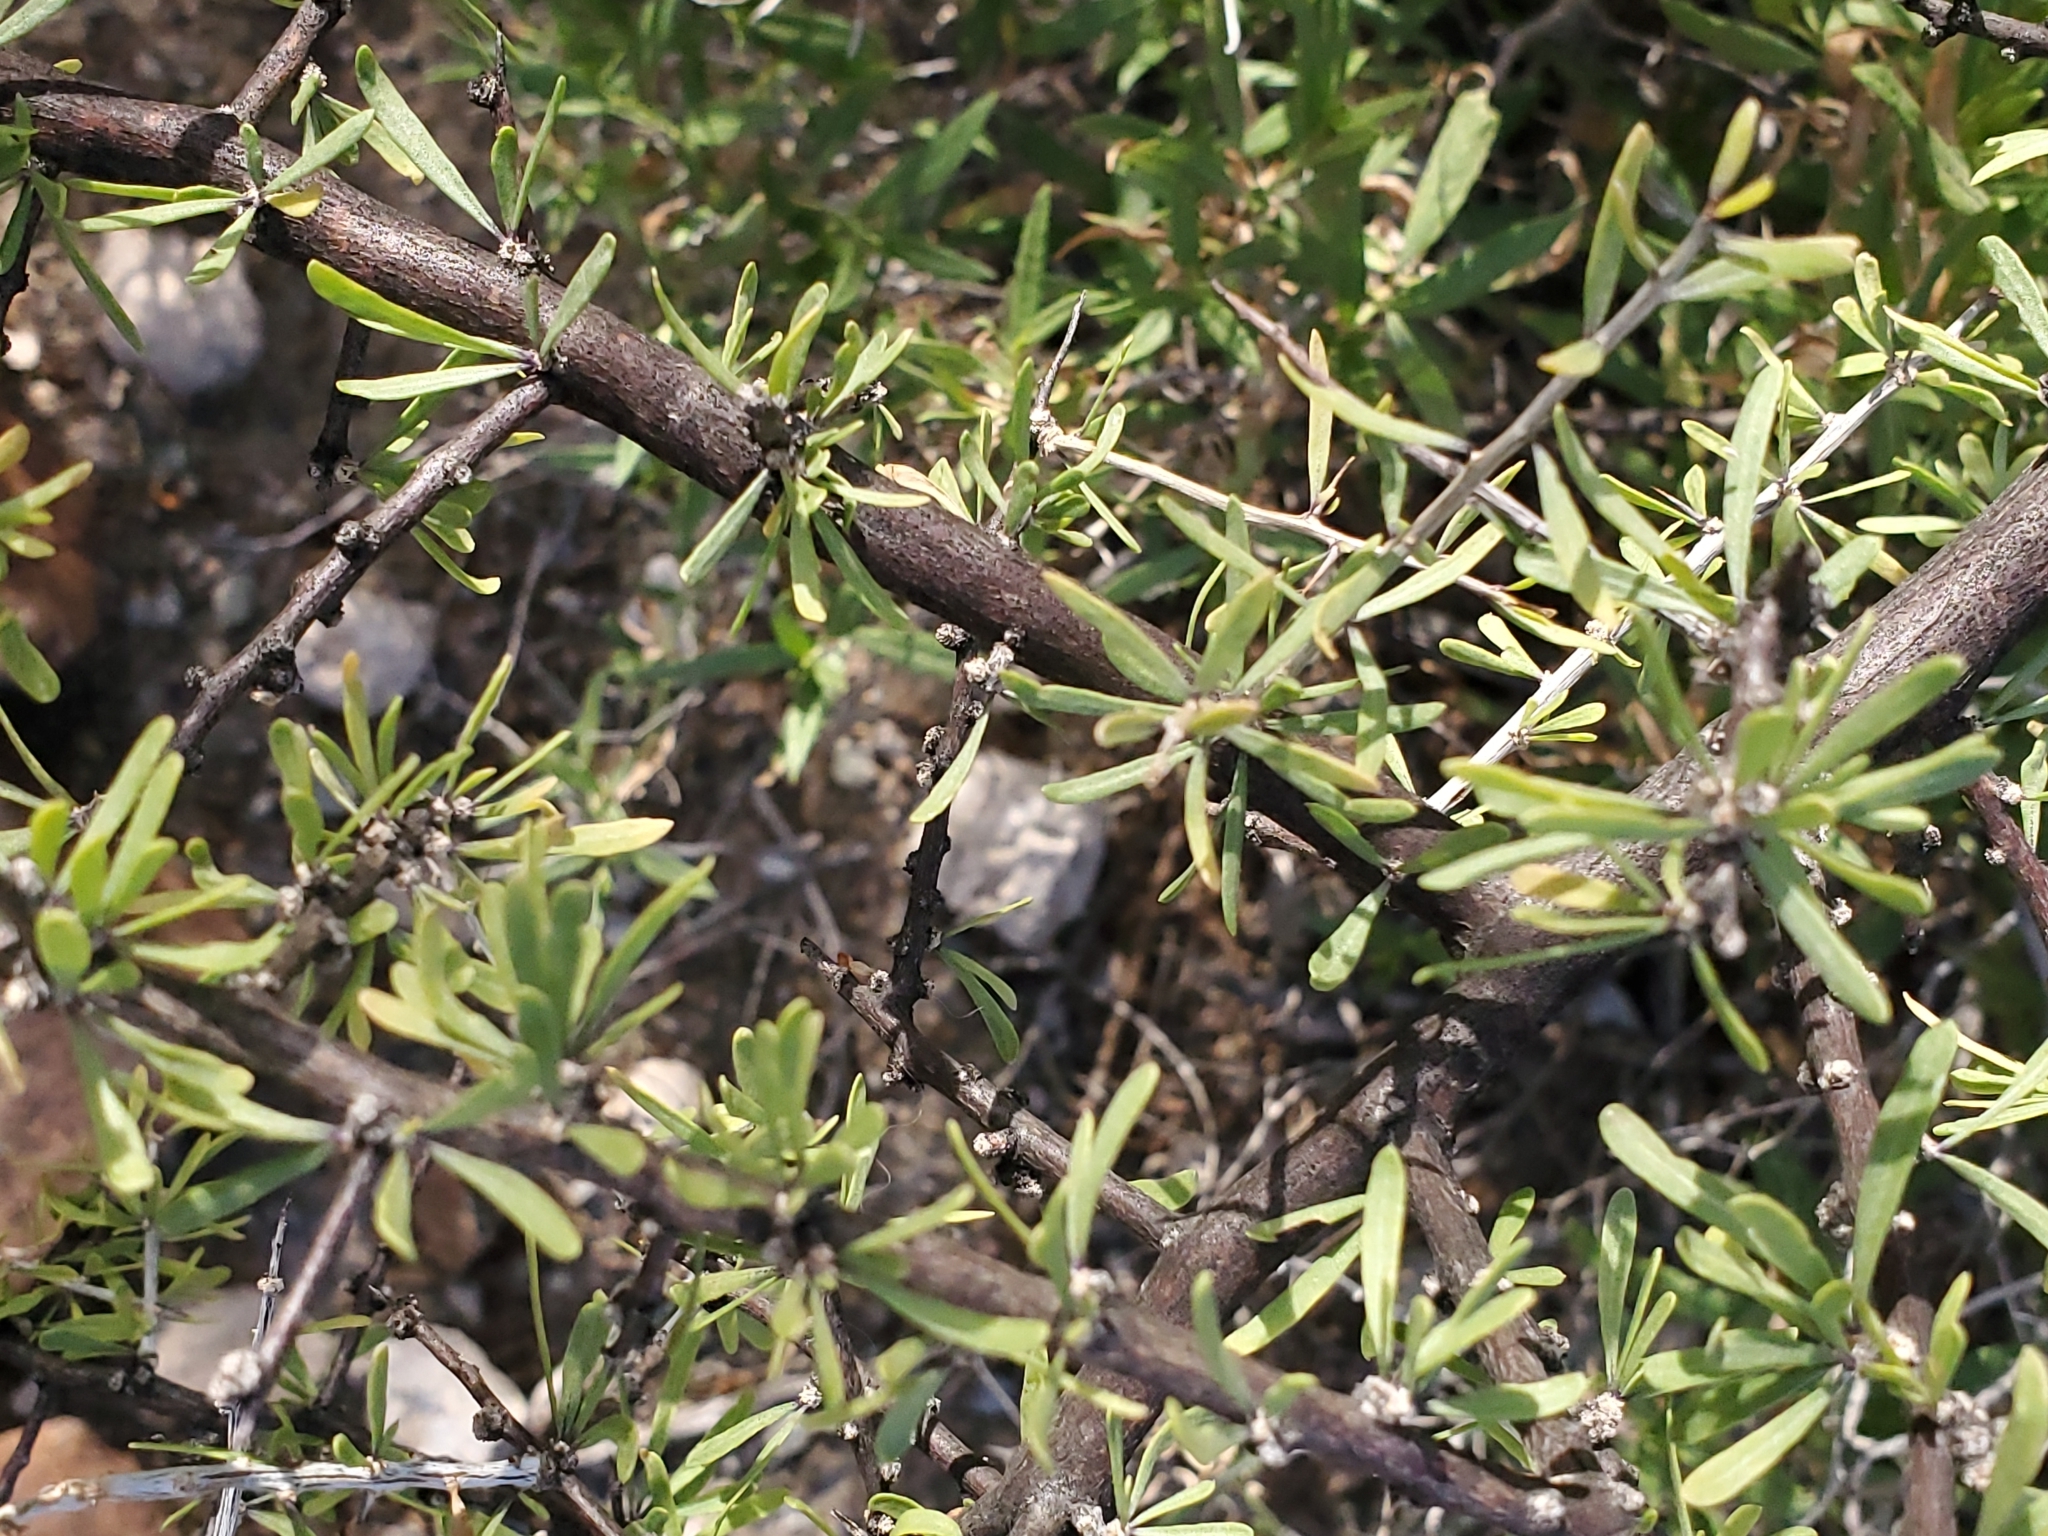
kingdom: Plantae
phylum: Tracheophyta
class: Magnoliopsida
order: Solanales
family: Solanaceae
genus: Lycium
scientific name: Lycium berlandieri
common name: Berlandier wolfberry
